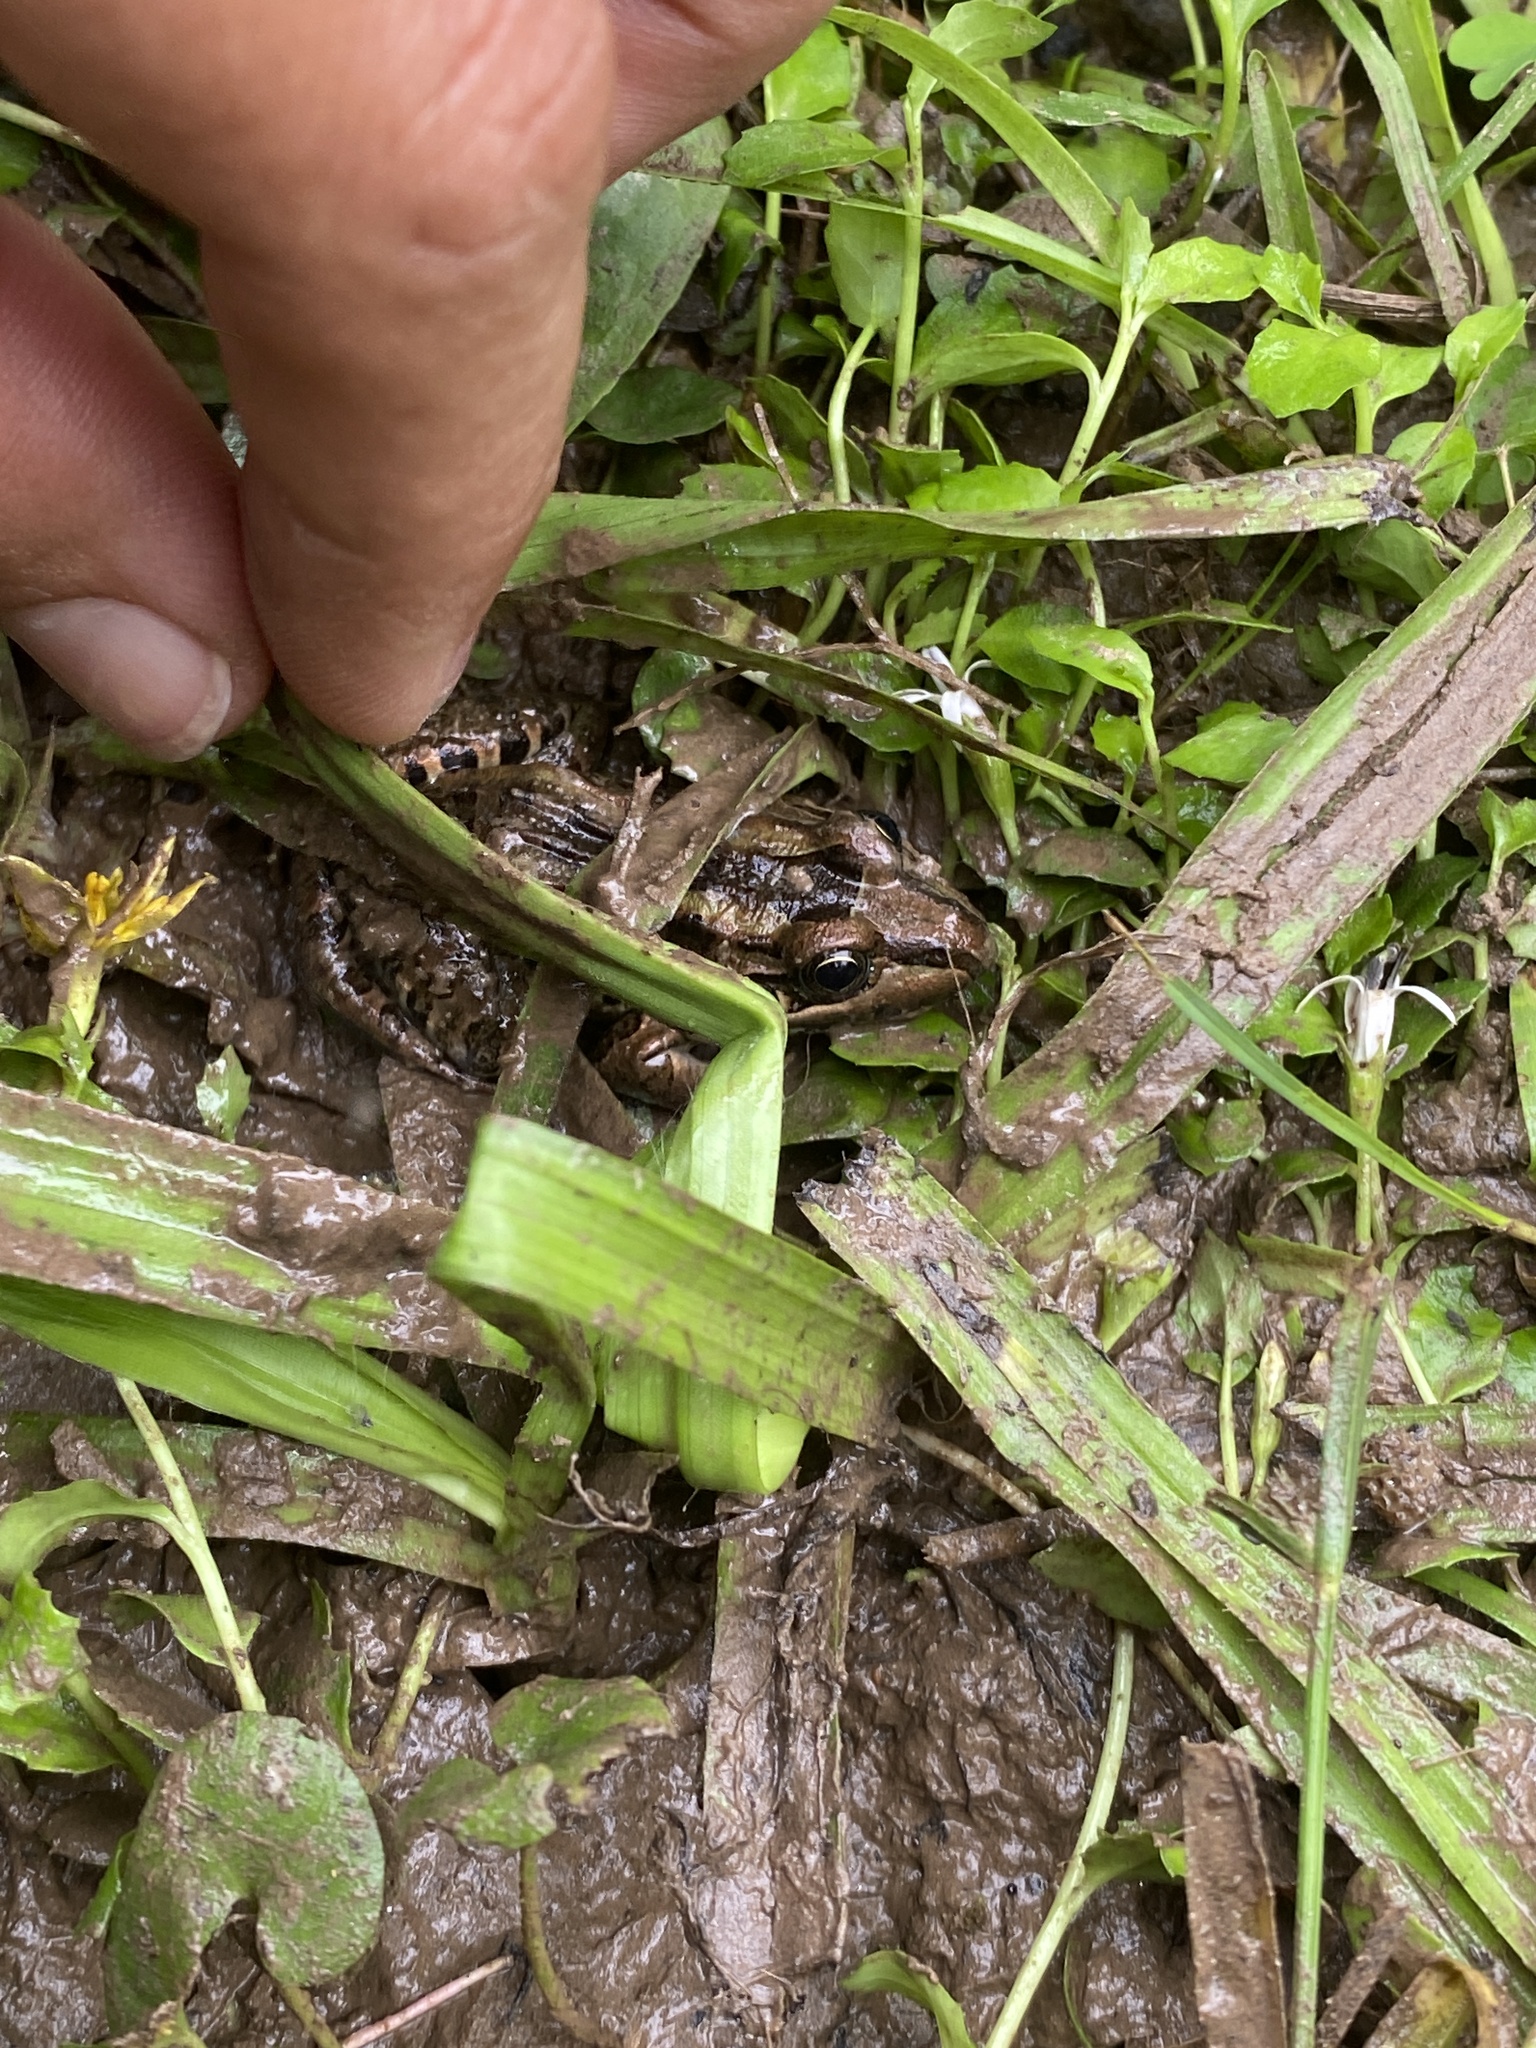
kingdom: Animalia
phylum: Chordata
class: Amphibia
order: Anura
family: Leptodactylidae
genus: Leptodactylus
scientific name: Leptodactylus luctator
